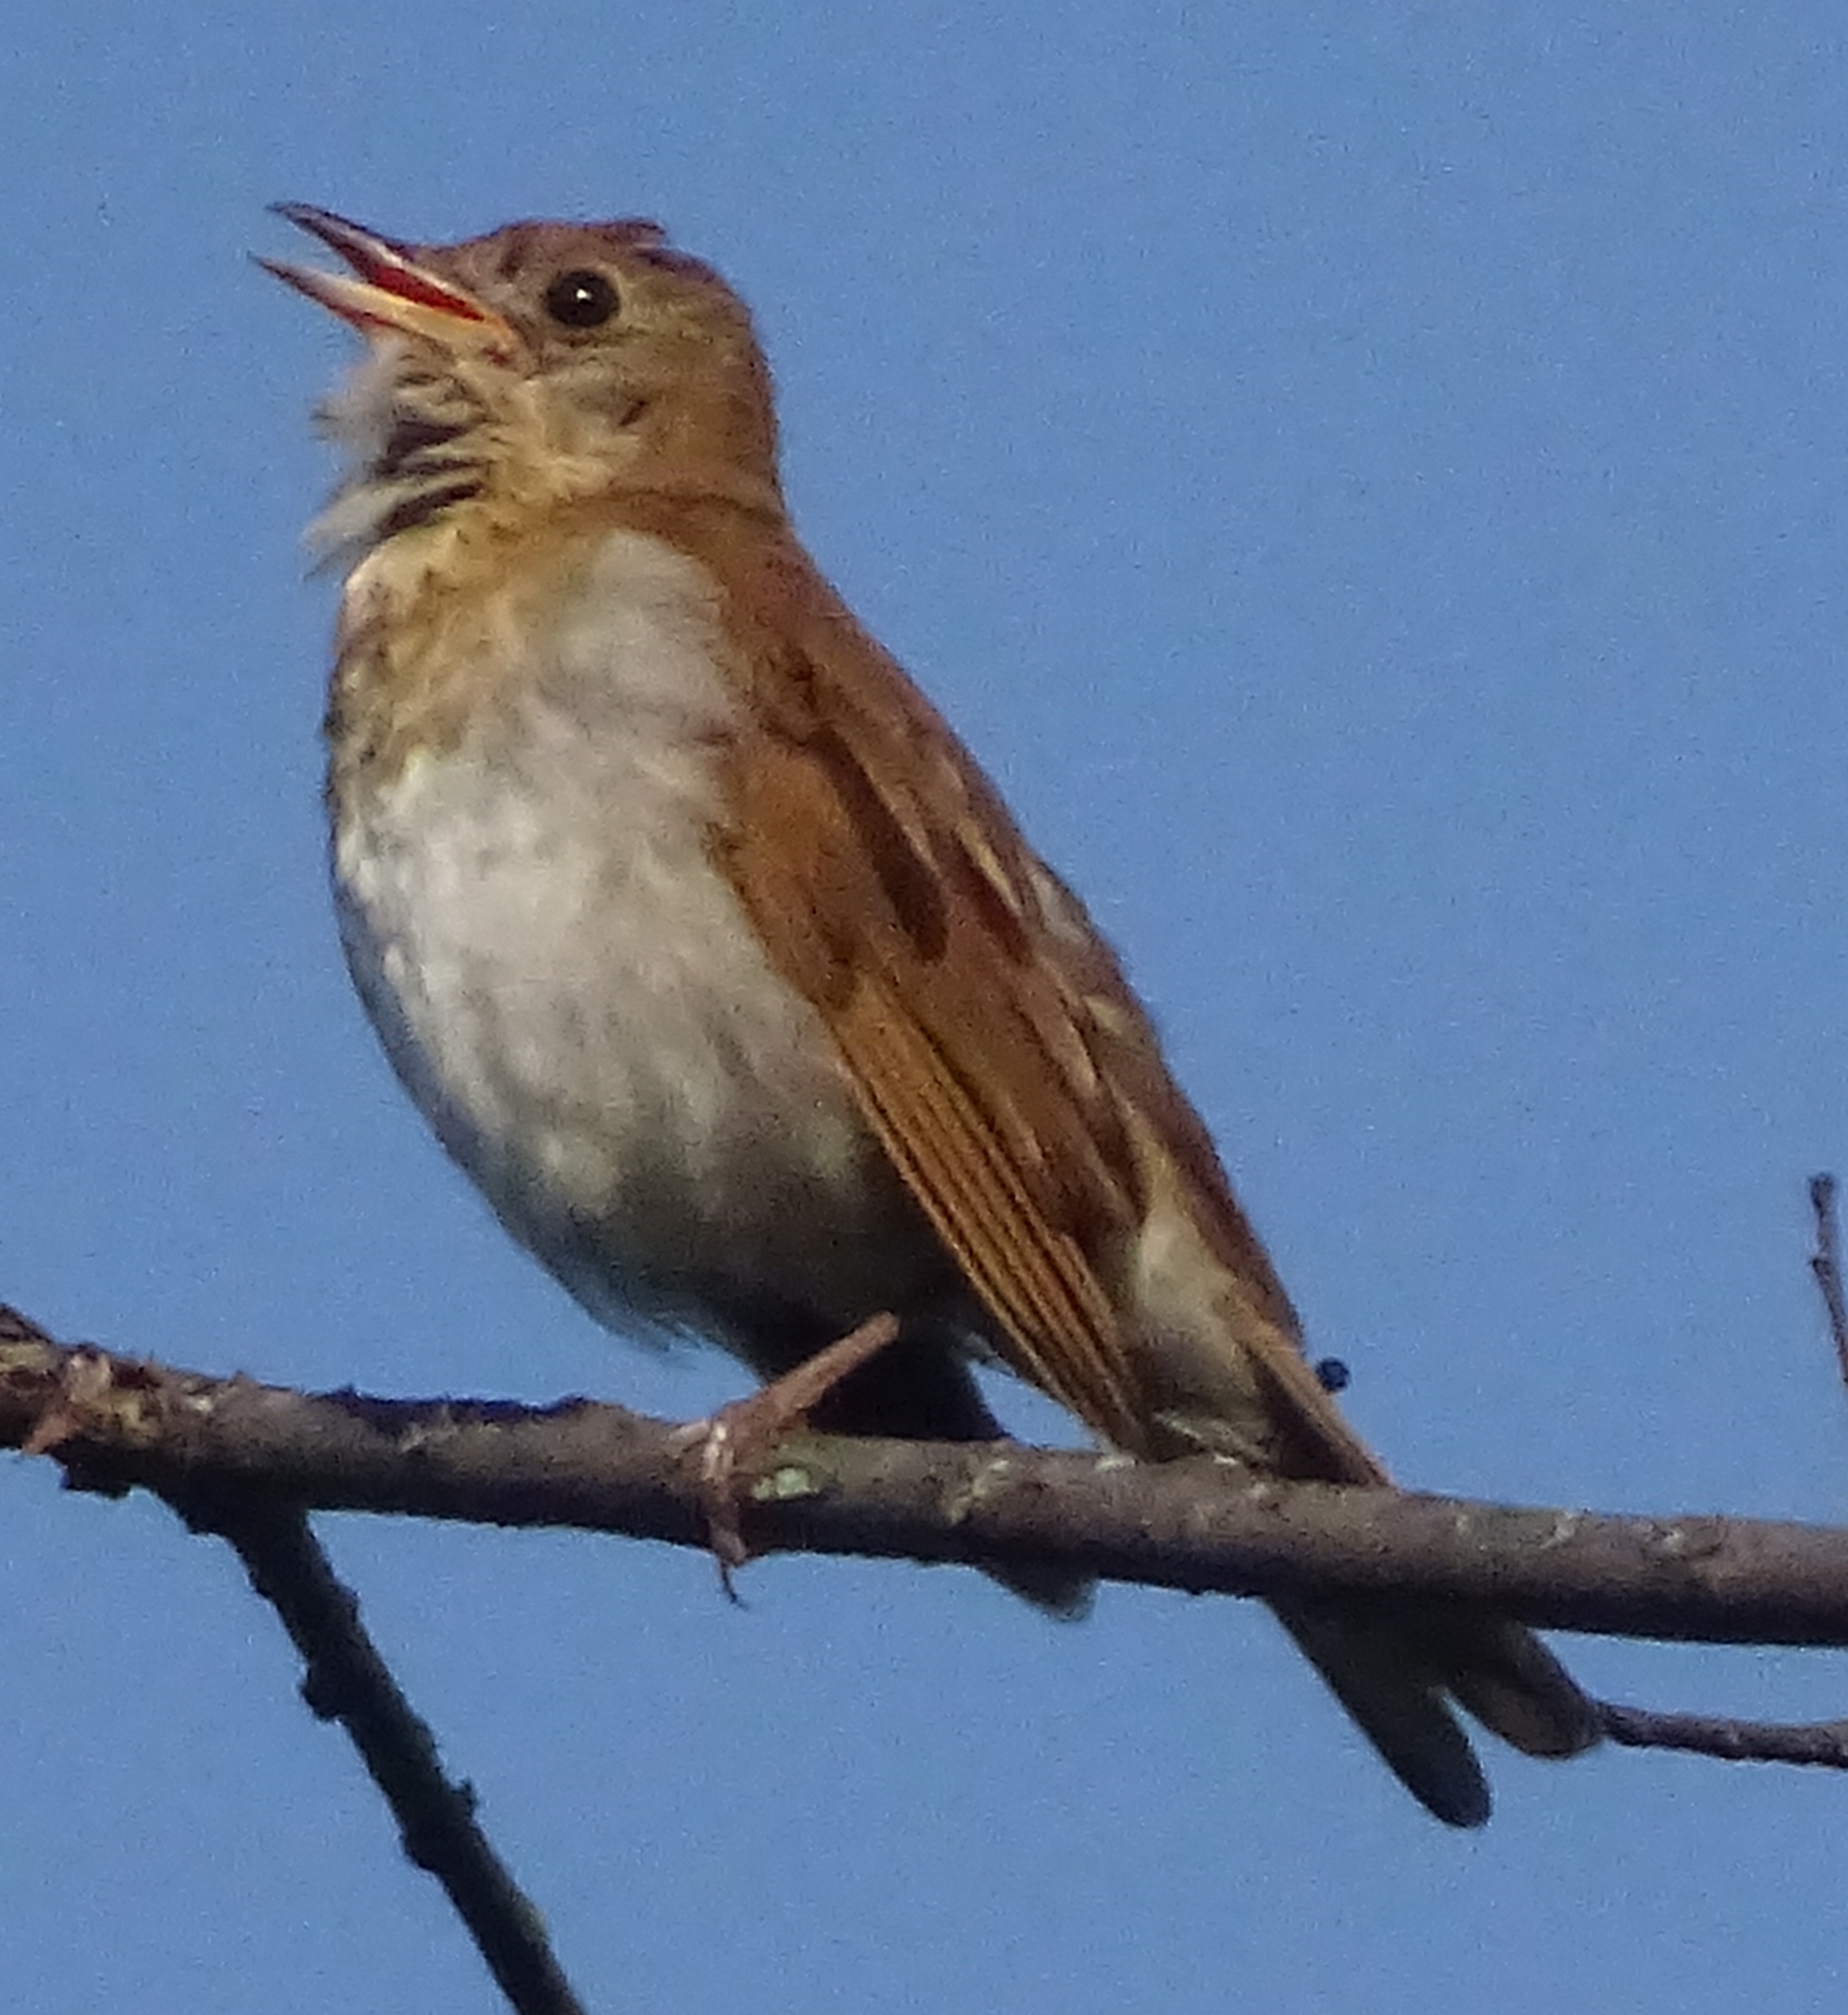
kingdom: Animalia
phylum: Chordata
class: Aves
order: Passeriformes
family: Turdidae
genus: Catharus
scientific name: Catharus fuscescens
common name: Veery
